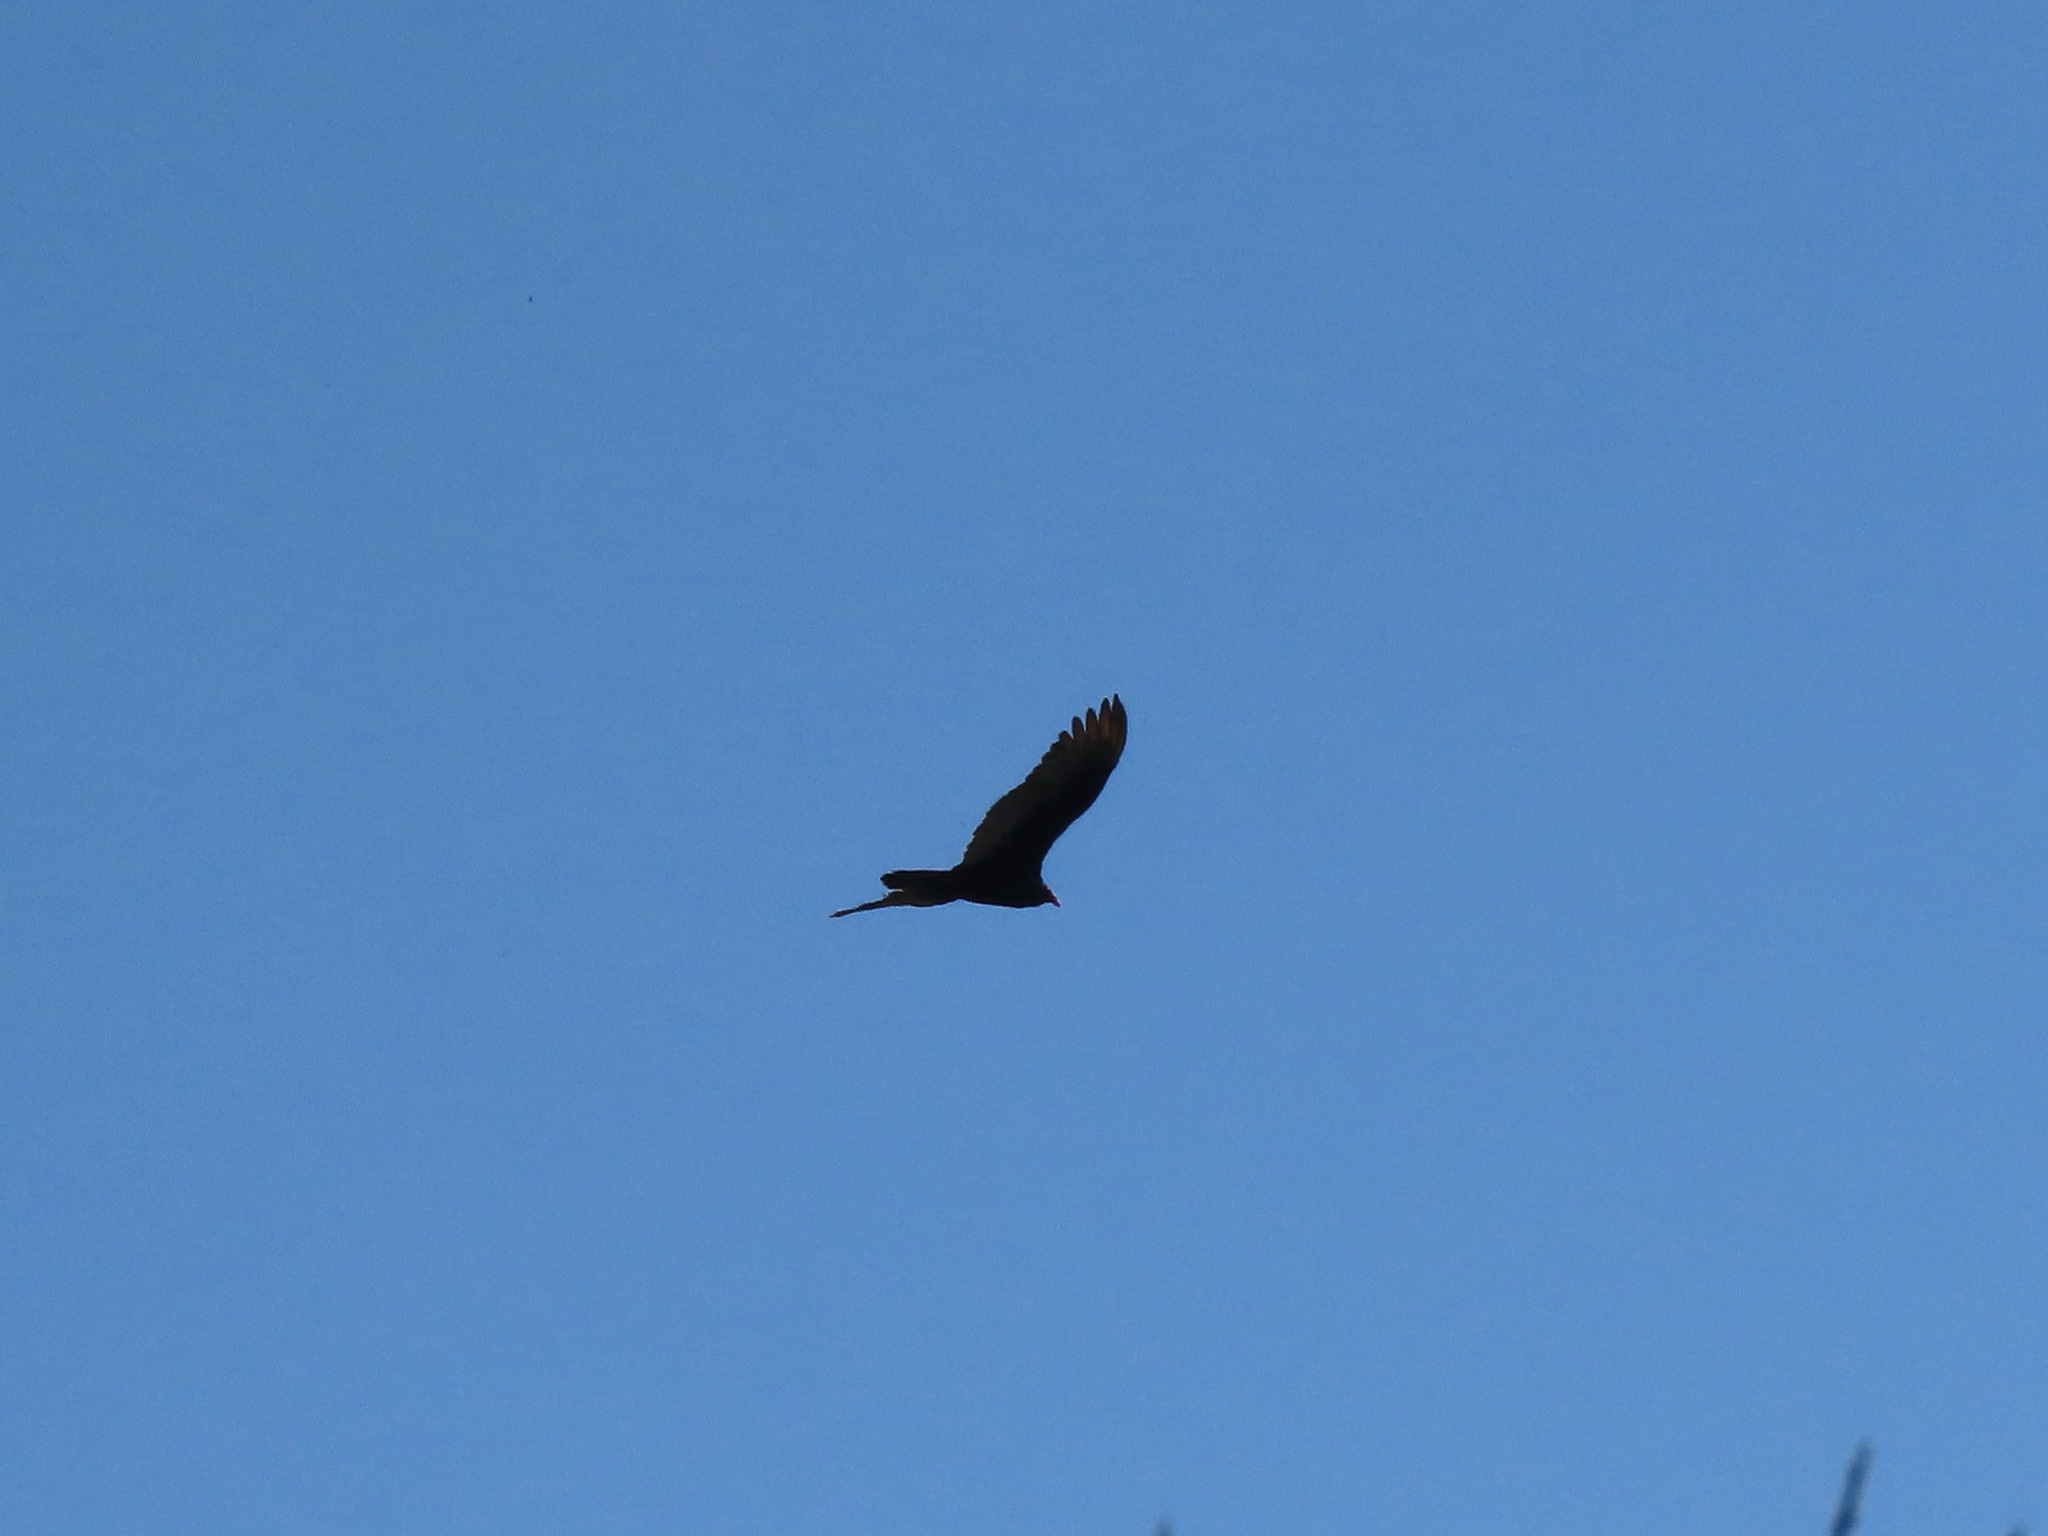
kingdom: Animalia
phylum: Chordata
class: Aves
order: Accipitriformes
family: Cathartidae
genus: Cathartes
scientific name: Cathartes aura
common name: Turkey vulture
